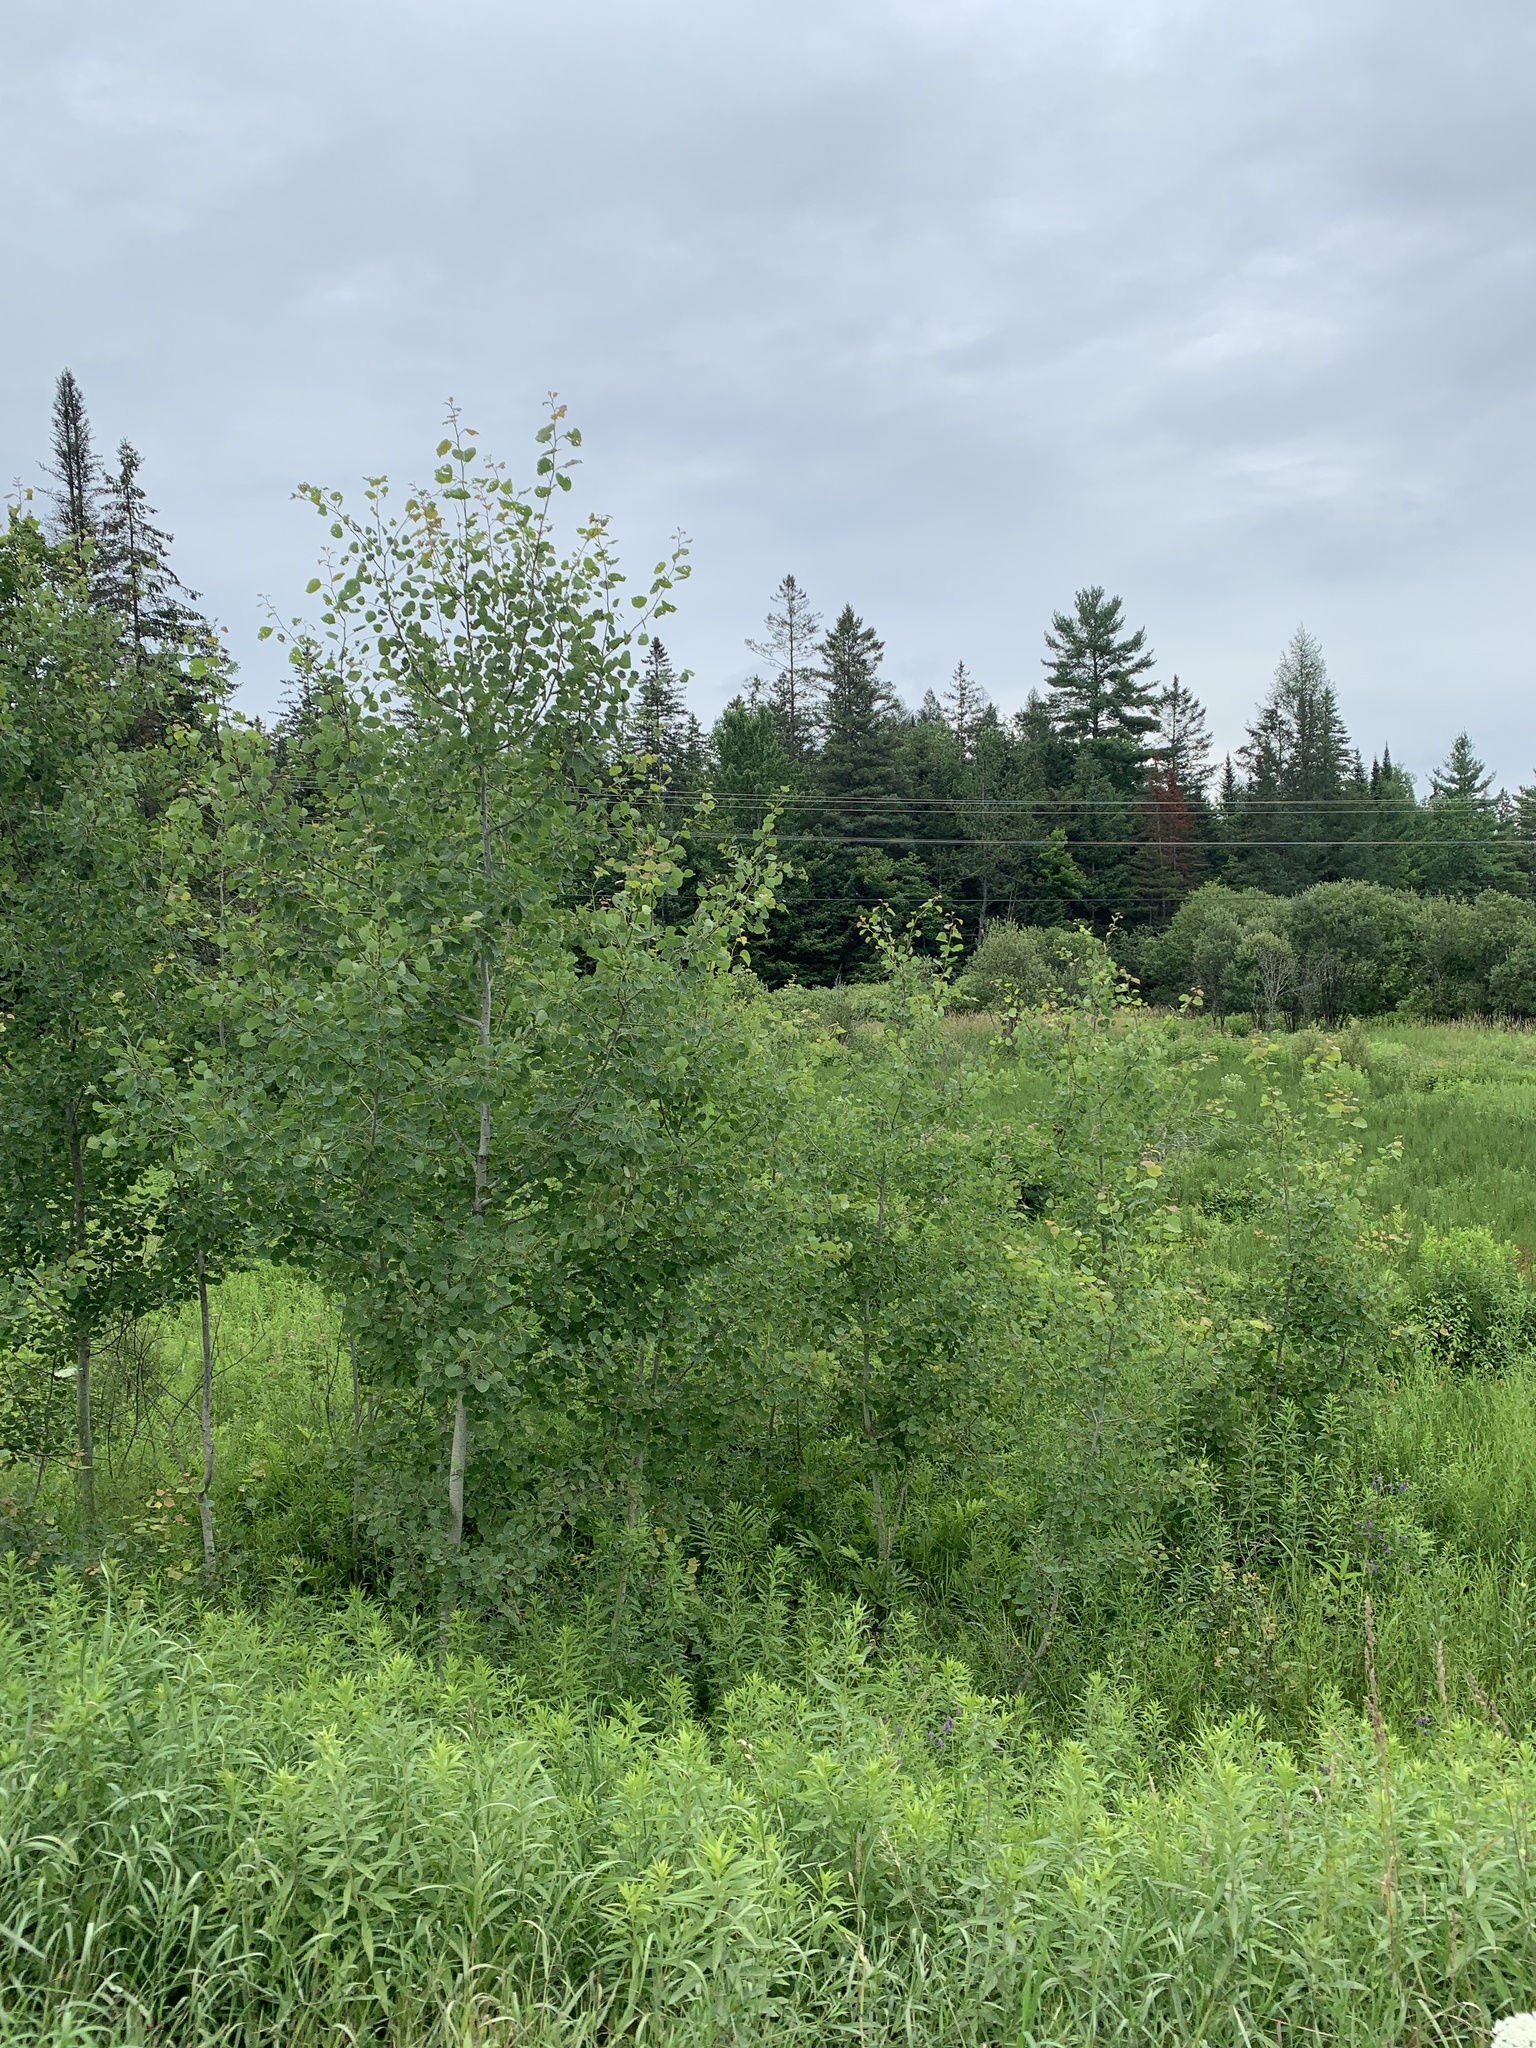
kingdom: Plantae
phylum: Tracheophyta
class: Magnoliopsida
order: Malpighiales
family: Salicaceae
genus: Populus
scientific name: Populus tremuloides
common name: Quaking aspen
